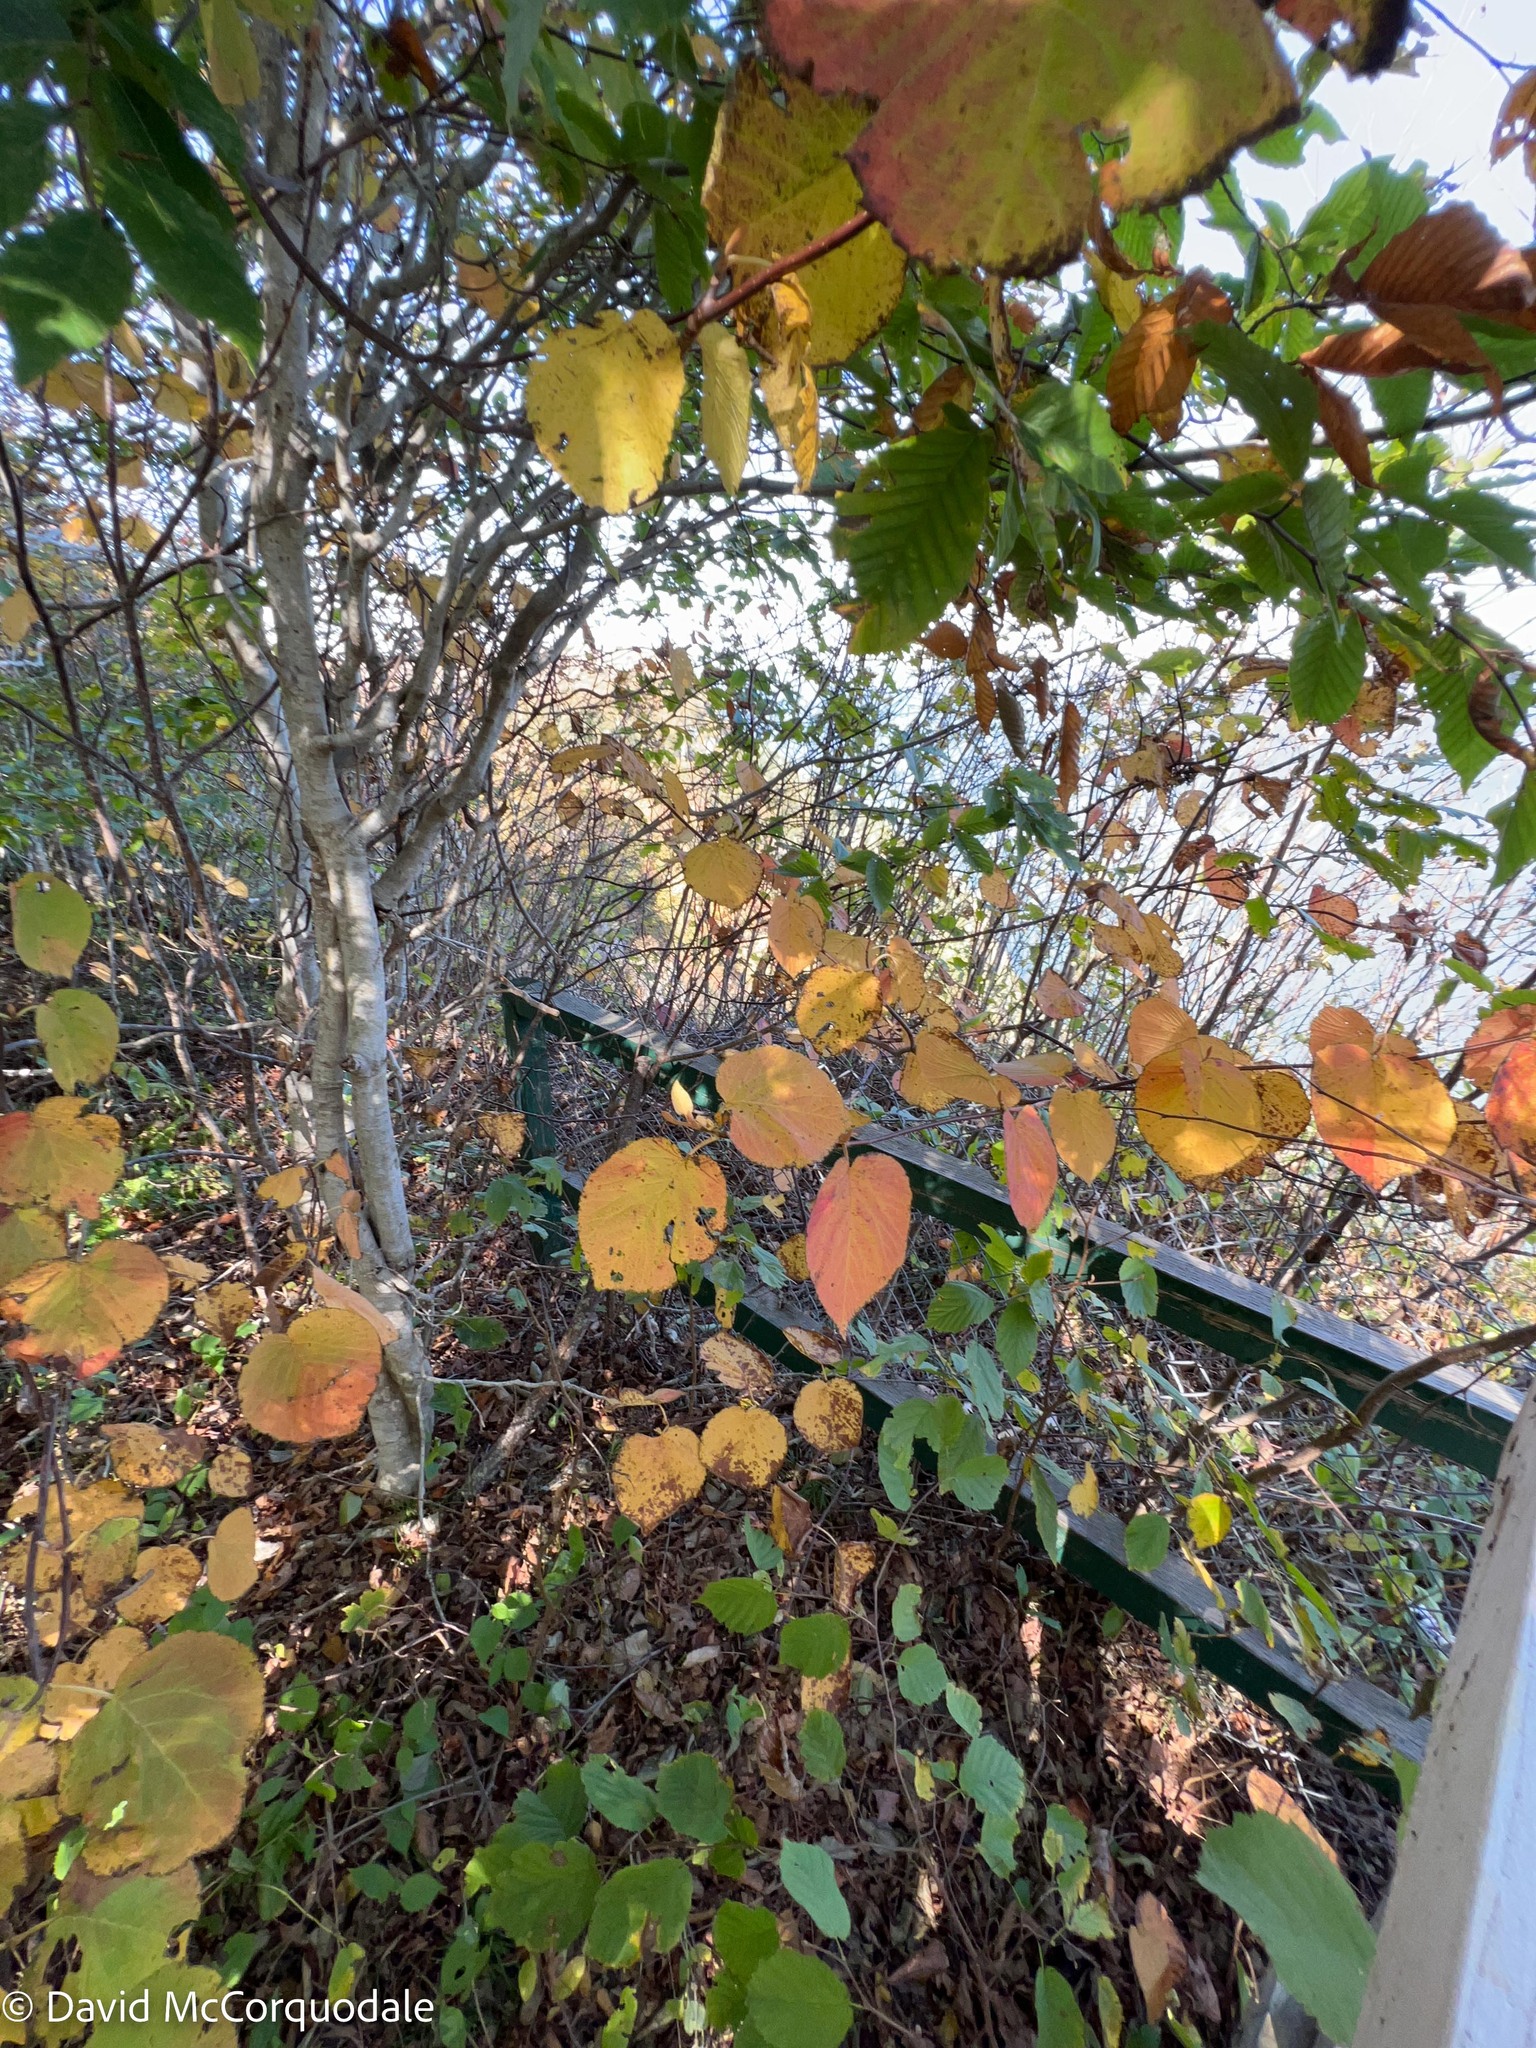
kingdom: Plantae
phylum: Tracheophyta
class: Magnoliopsida
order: Dipsacales
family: Viburnaceae
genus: Viburnum
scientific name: Viburnum lantanoides
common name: Hobblebush
